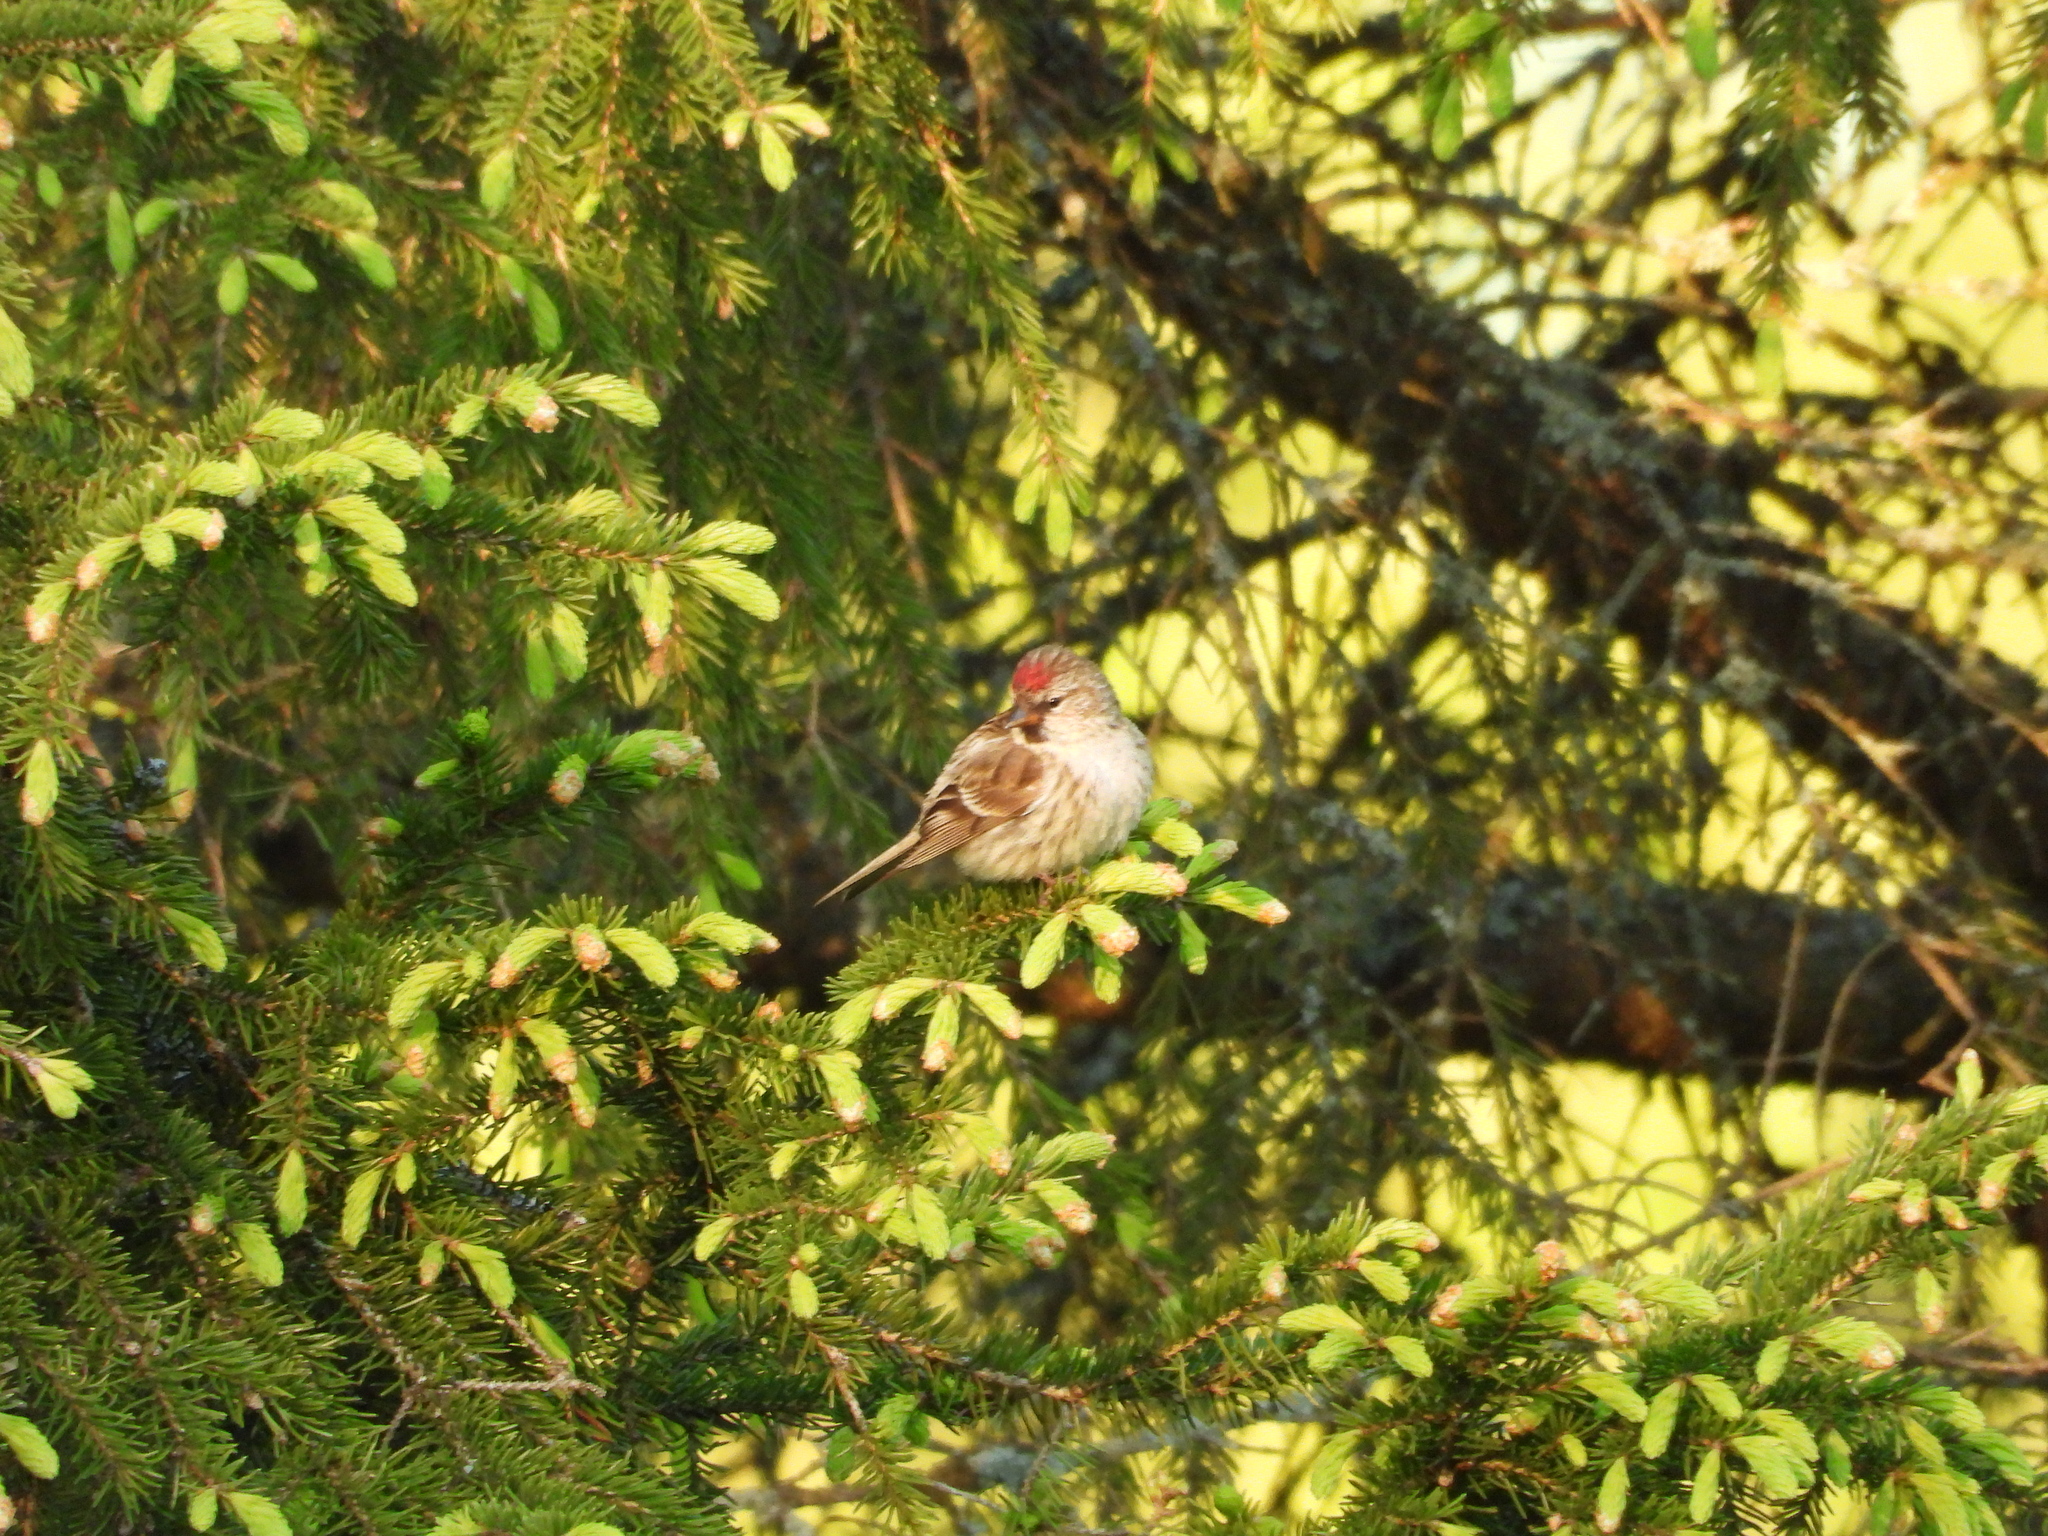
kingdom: Animalia
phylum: Chordata
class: Aves
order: Passeriformes
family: Fringillidae
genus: Acanthis
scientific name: Acanthis flammea
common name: Common redpoll
